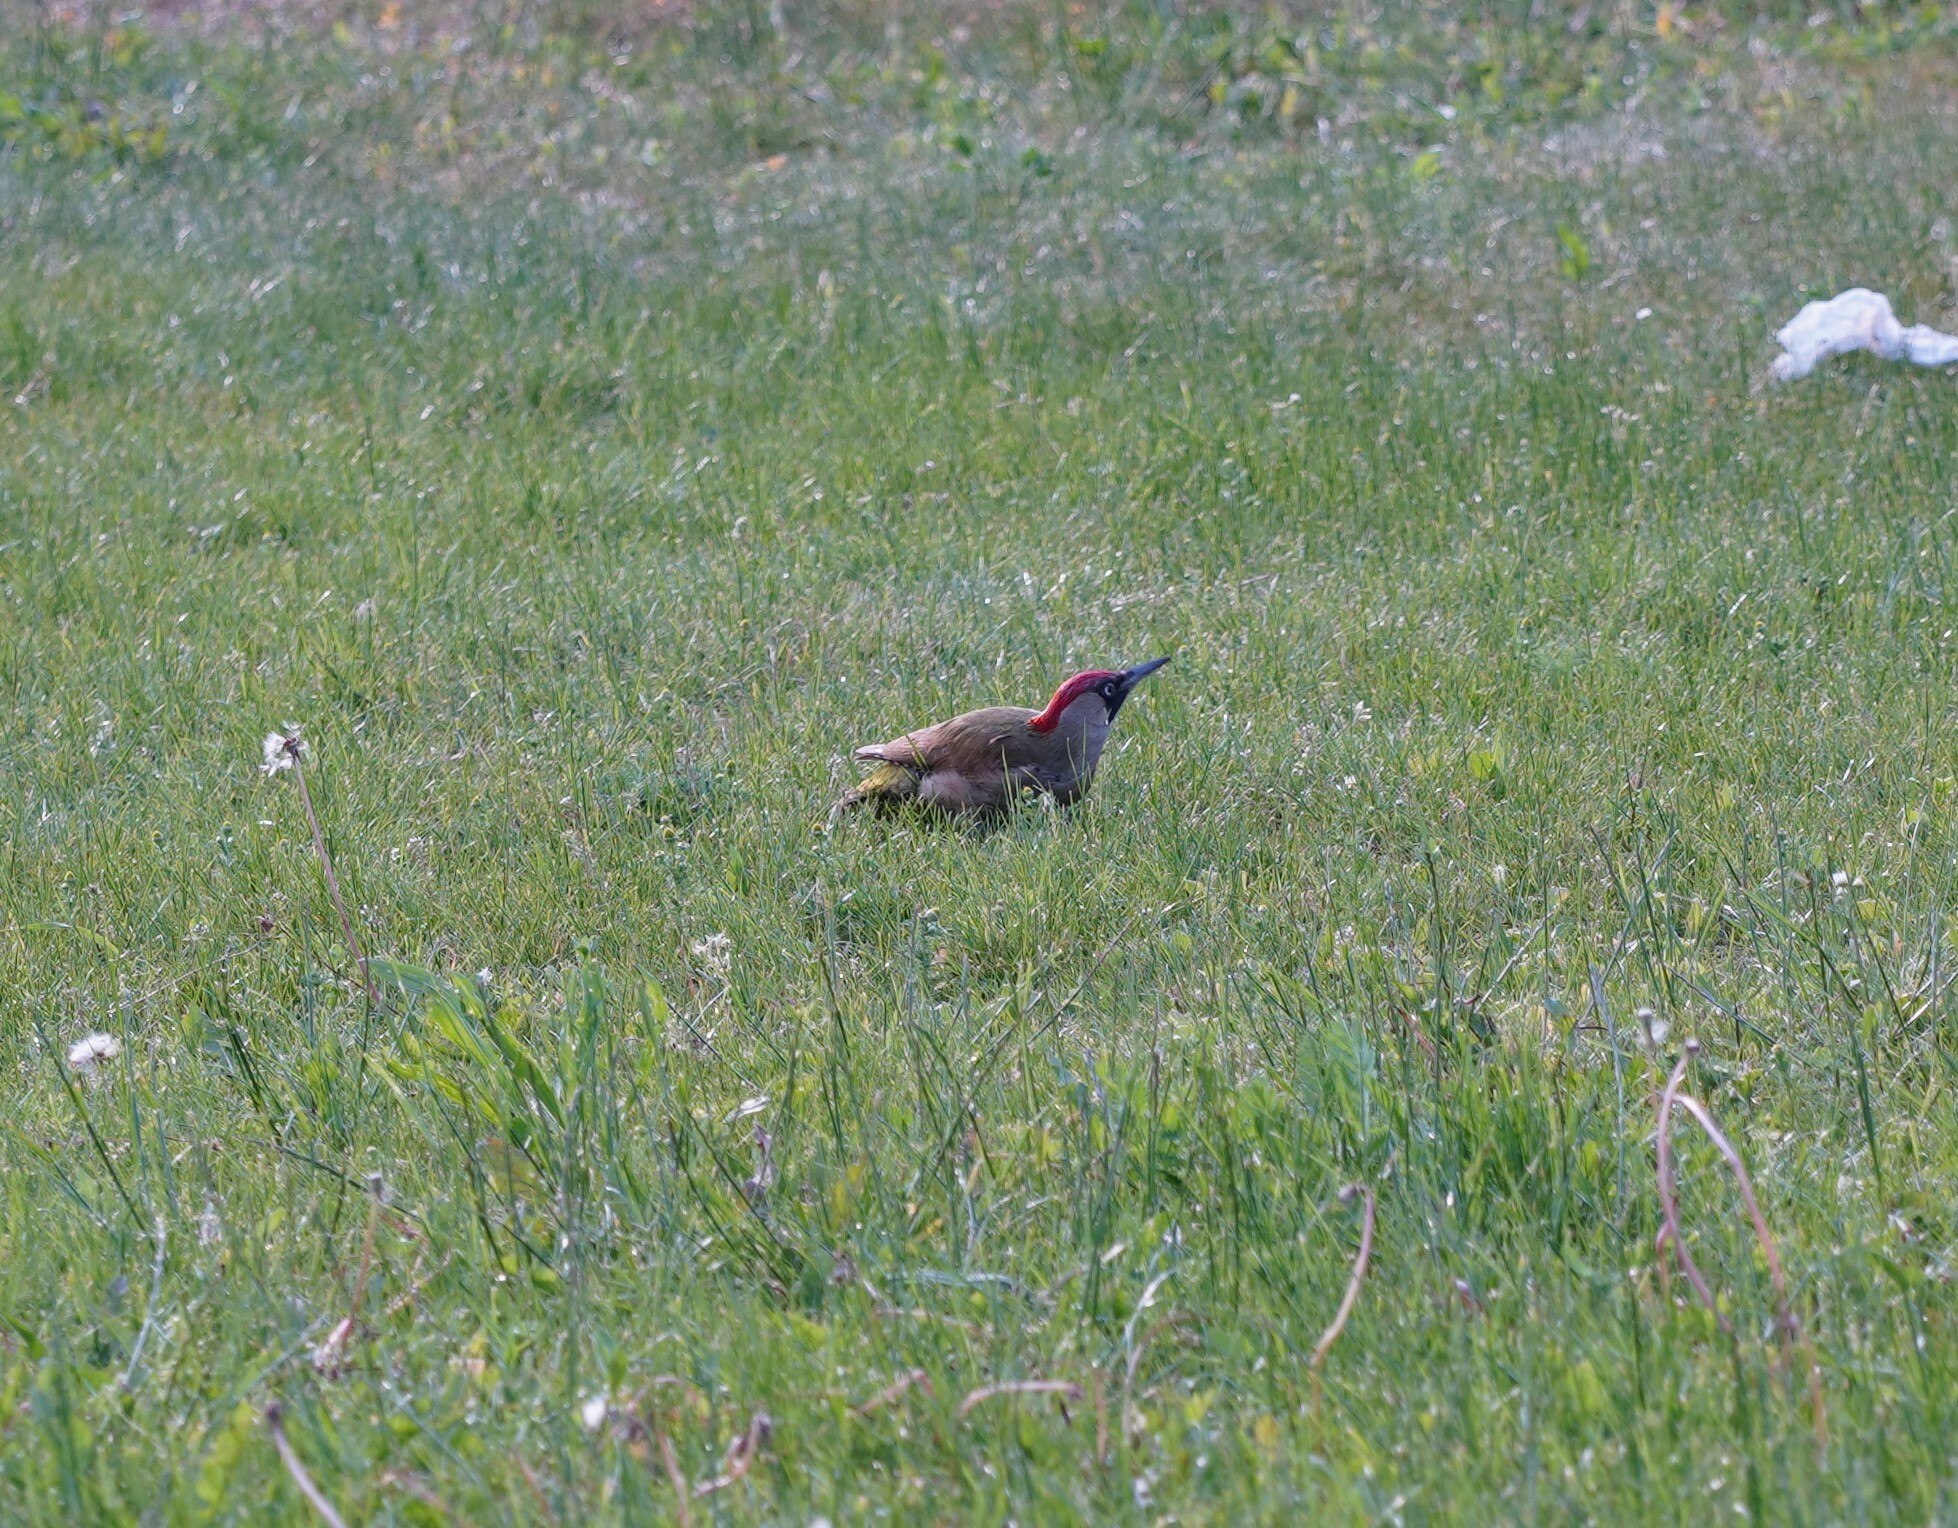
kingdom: Animalia
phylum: Chordata
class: Aves
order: Piciformes
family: Picidae
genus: Picus
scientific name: Picus viridis
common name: European green woodpecker
